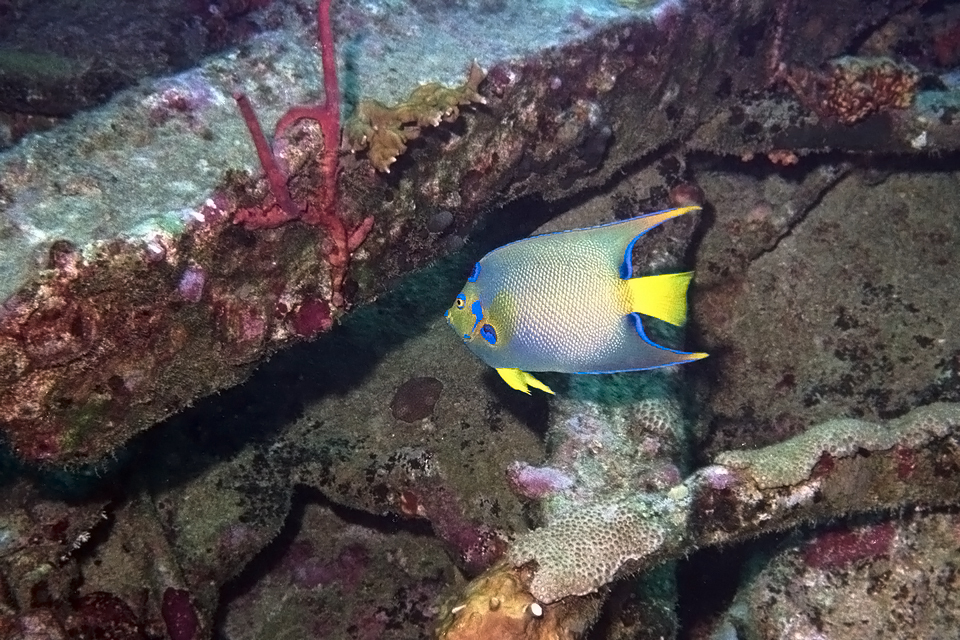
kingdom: Animalia
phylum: Chordata
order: Perciformes
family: Pomacanthidae
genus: Holacanthus
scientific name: Holacanthus ciliaris
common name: Queen angelfish
